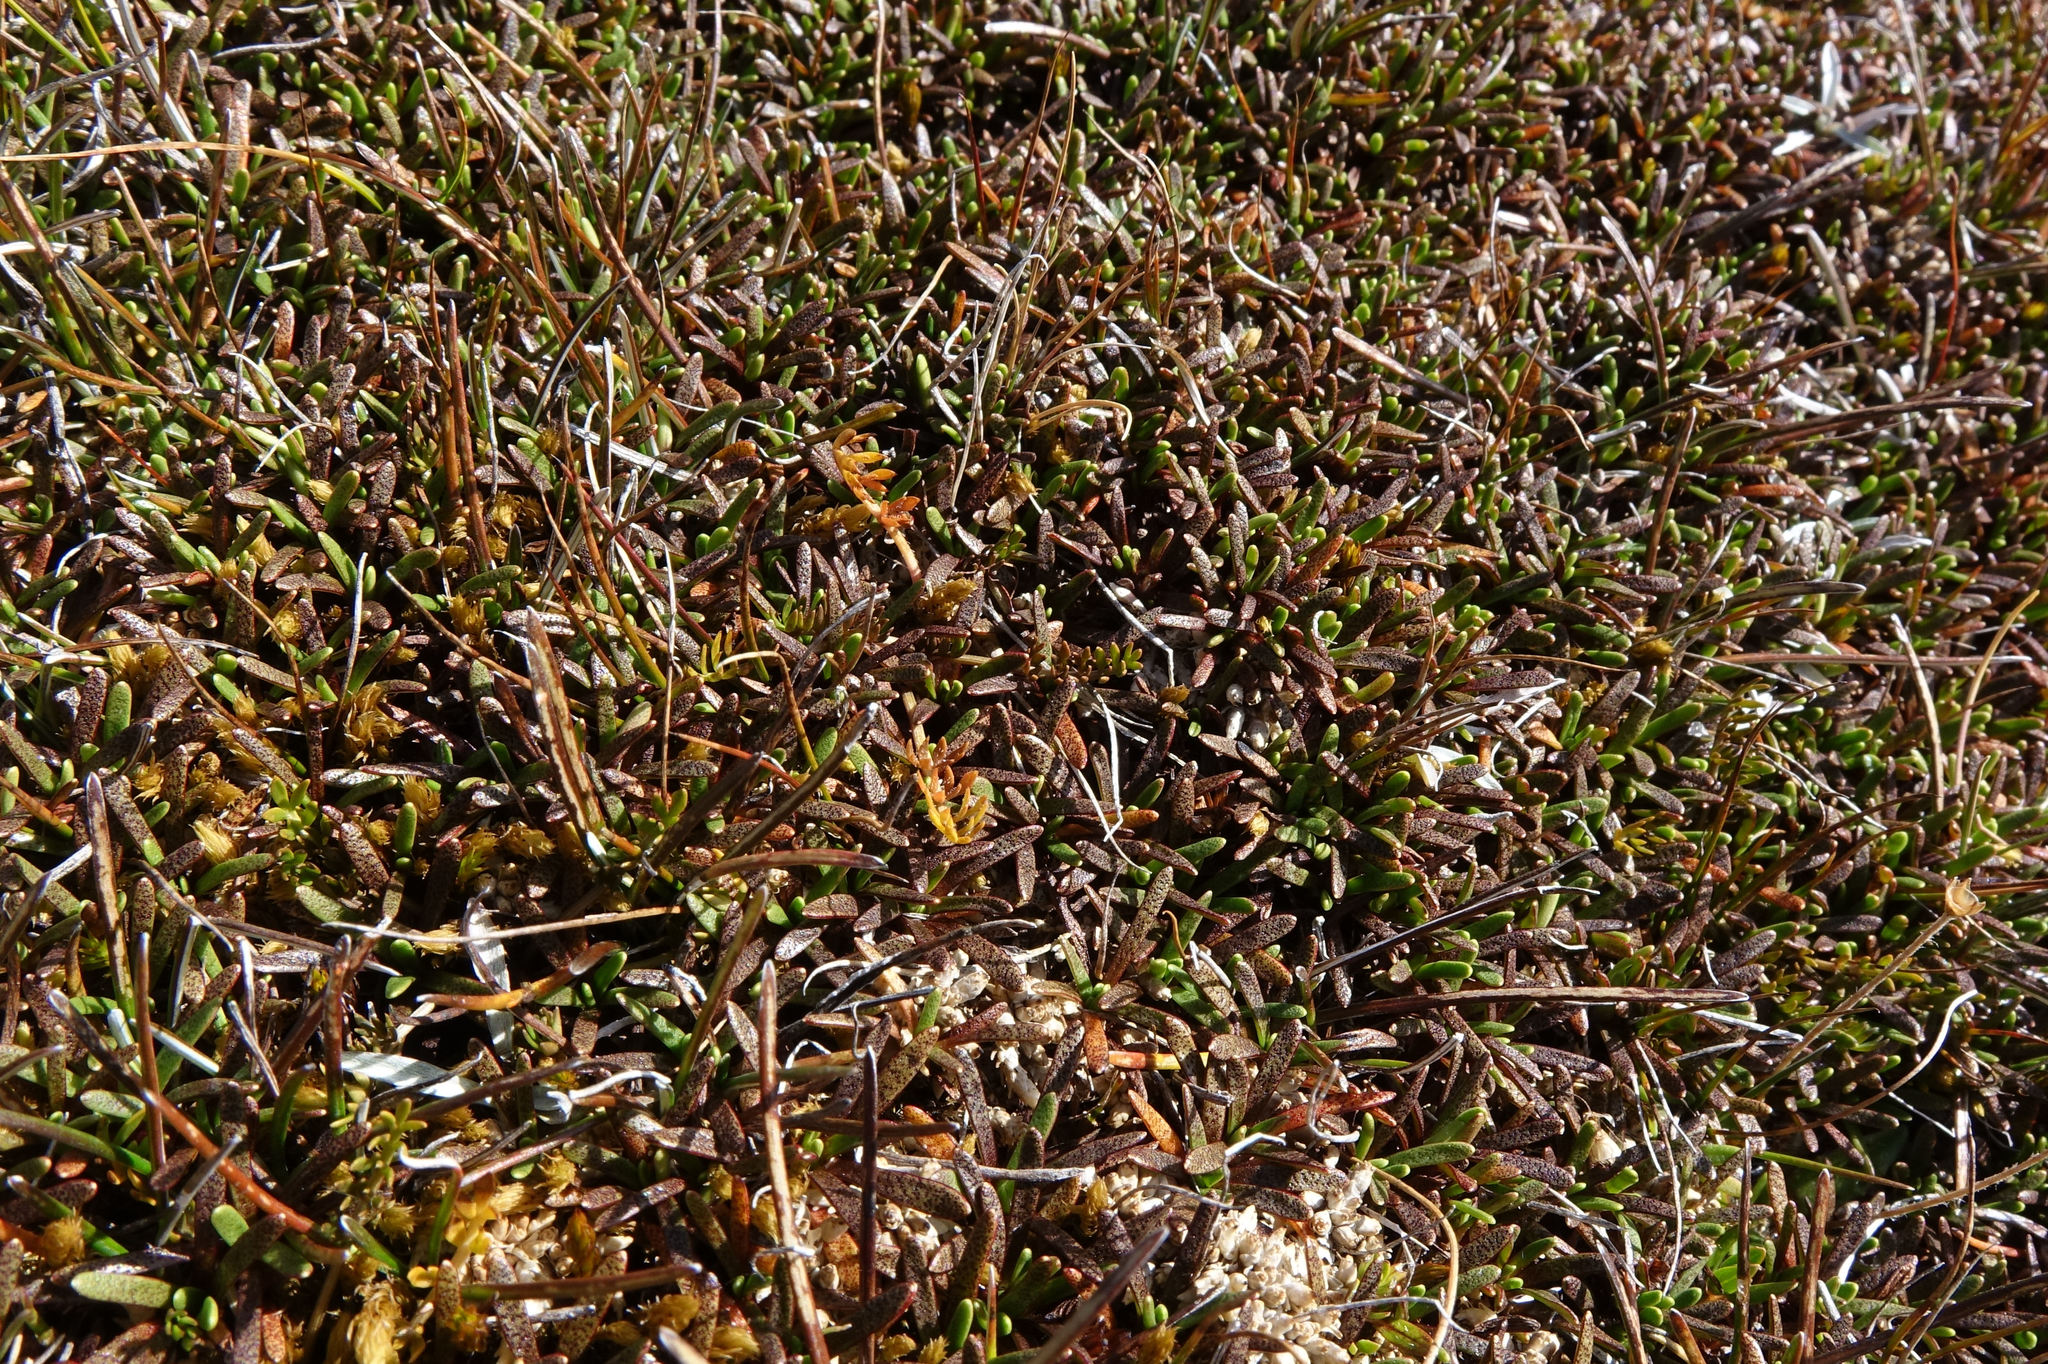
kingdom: Plantae
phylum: Tracheophyta
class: Magnoliopsida
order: Asterales
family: Asteraceae
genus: Abrotanella
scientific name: Abrotanella caespitosa
